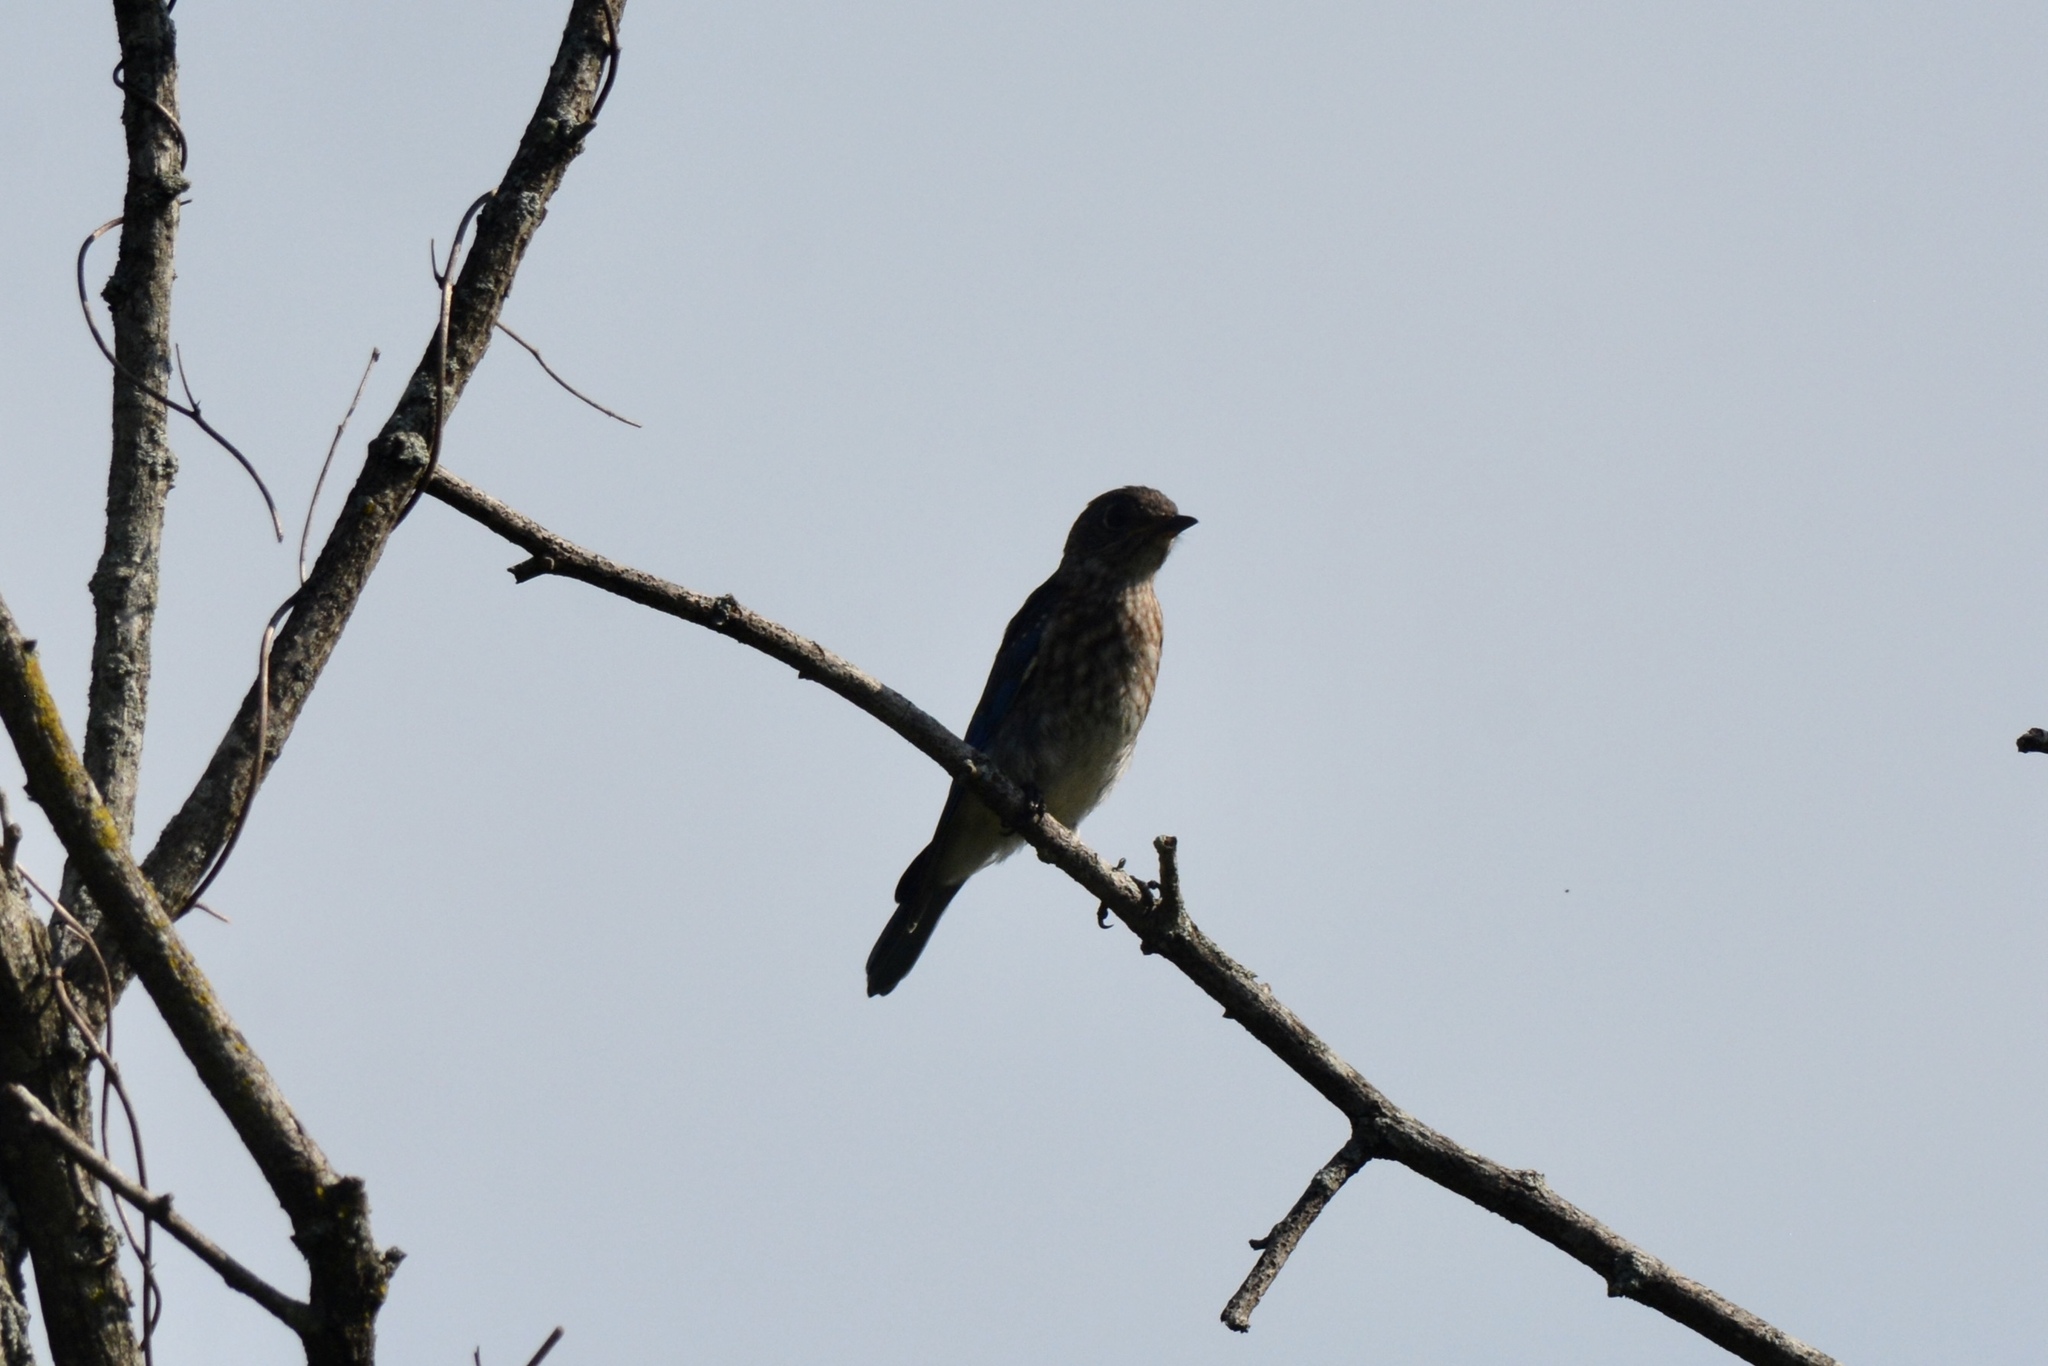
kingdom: Animalia
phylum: Chordata
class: Aves
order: Passeriformes
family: Turdidae
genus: Sialia
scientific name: Sialia sialis
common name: Eastern bluebird
